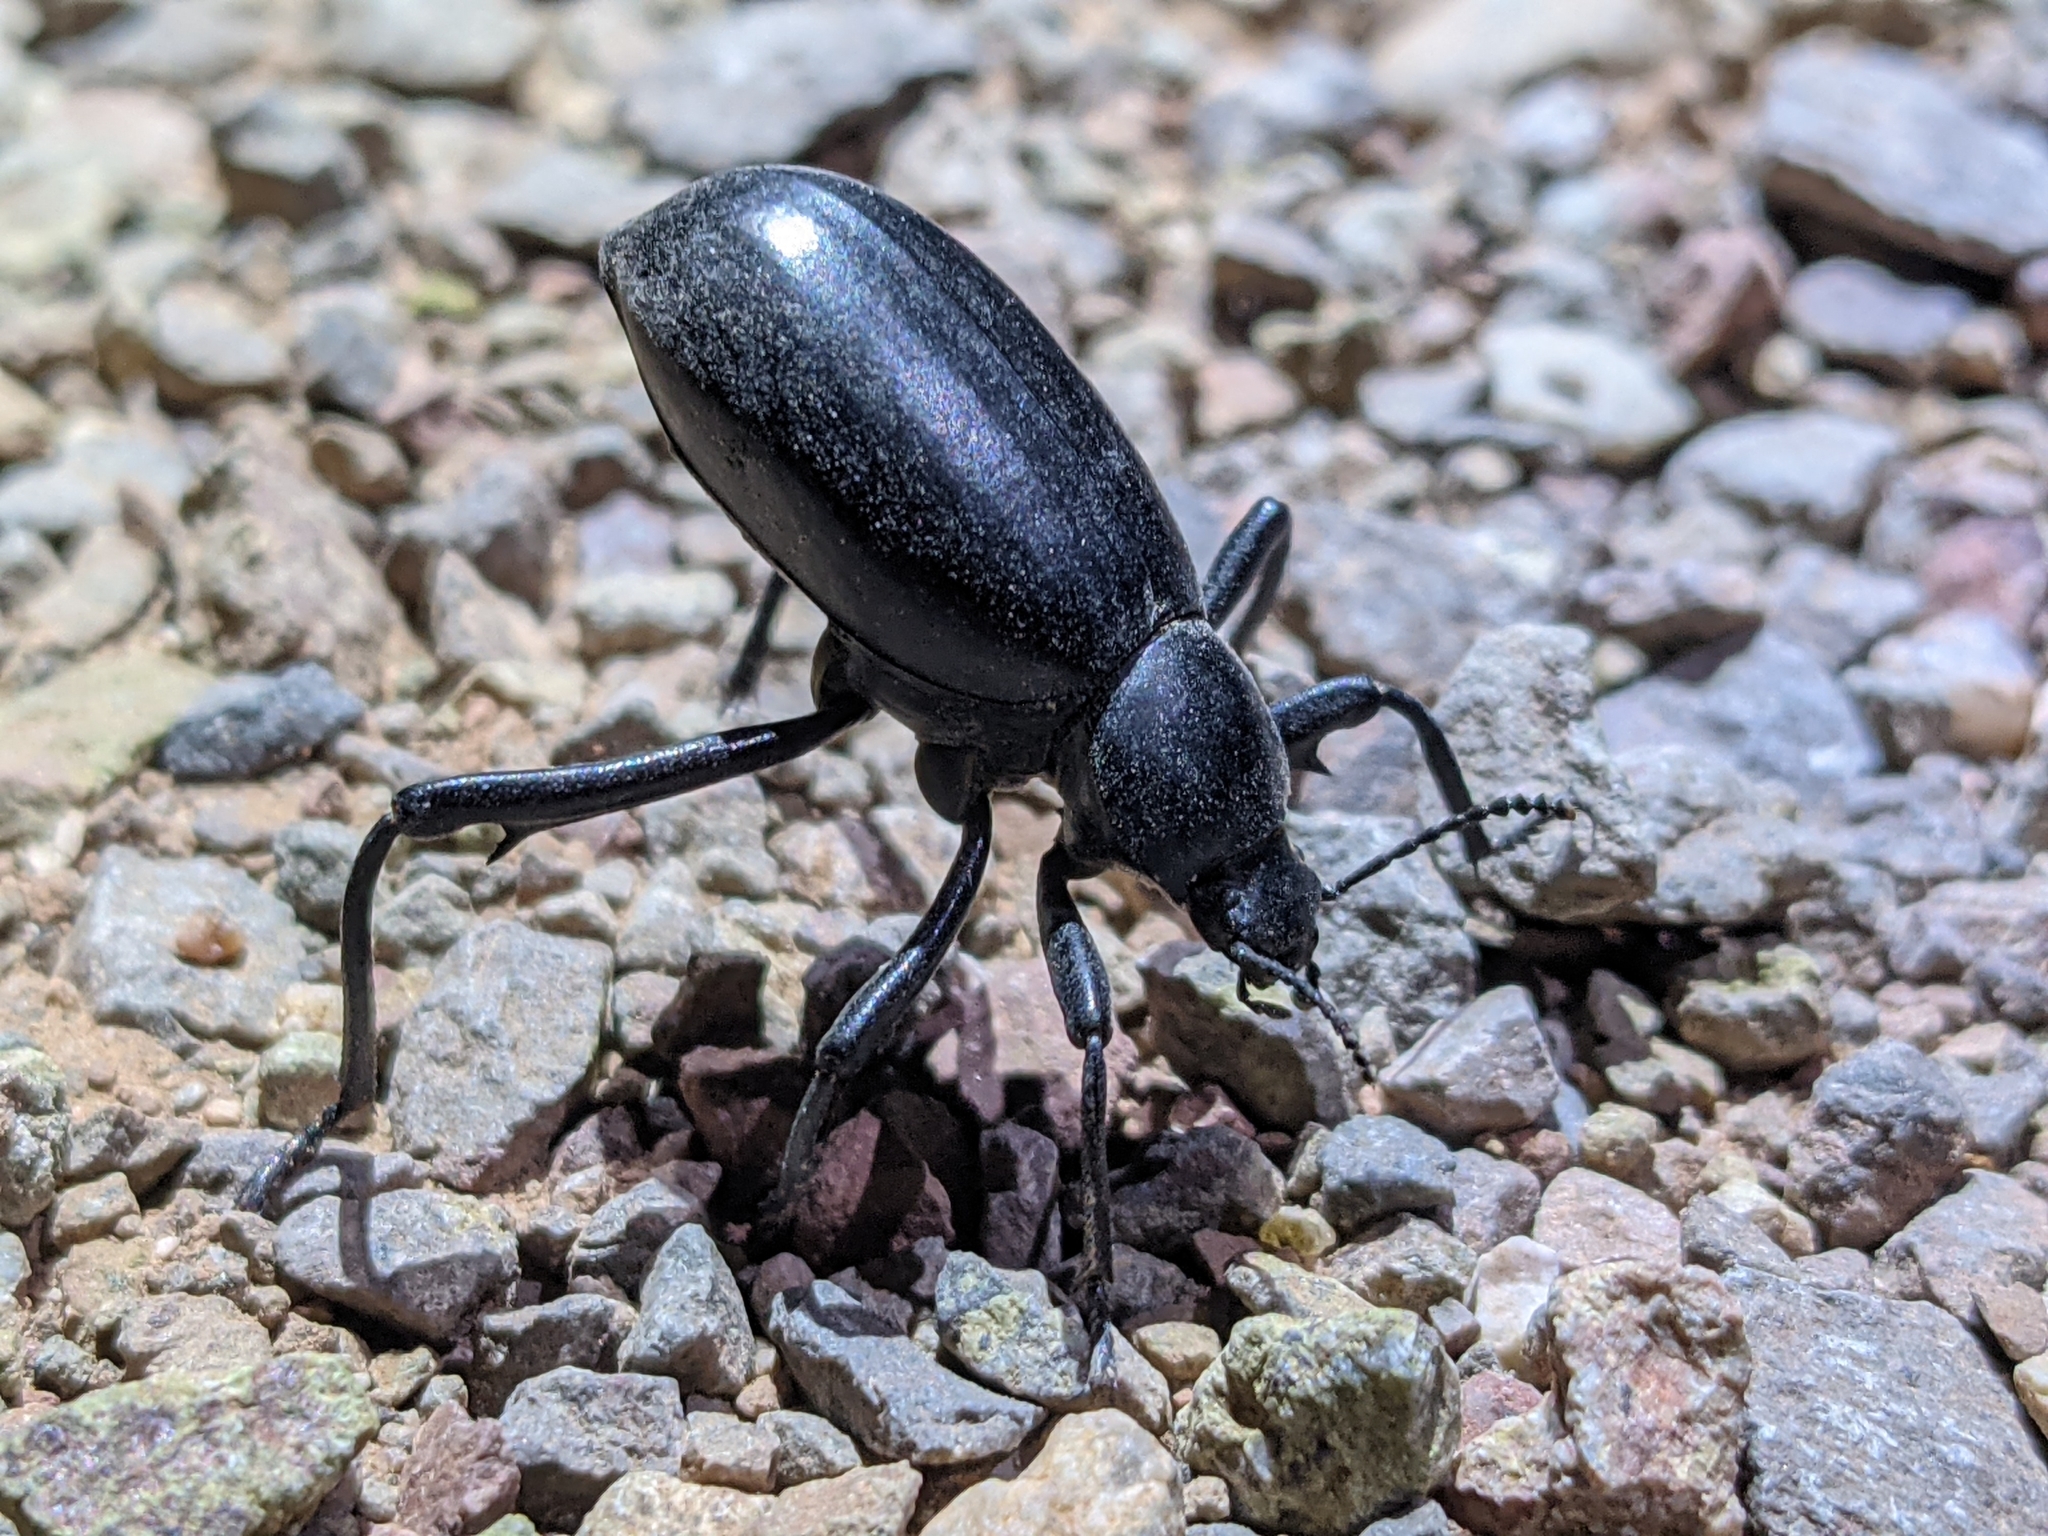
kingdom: Animalia
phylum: Arthropoda
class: Insecta
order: Coleoptera
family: Tenebrionidae
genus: Eleodes
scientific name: Eleodes armata
